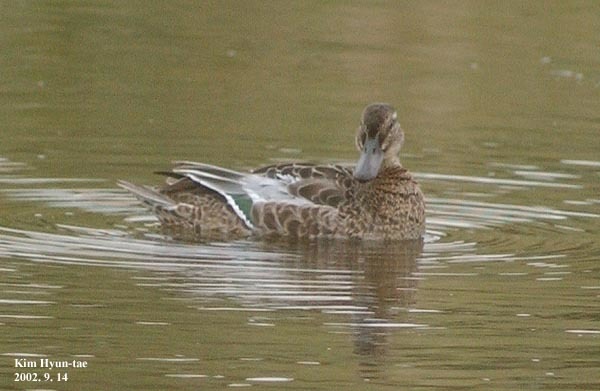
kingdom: Animalia
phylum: Chordata
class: Aves
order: Anseriformes
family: Anatidae
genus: Spatula
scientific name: Spatula querquedula
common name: Garganey
